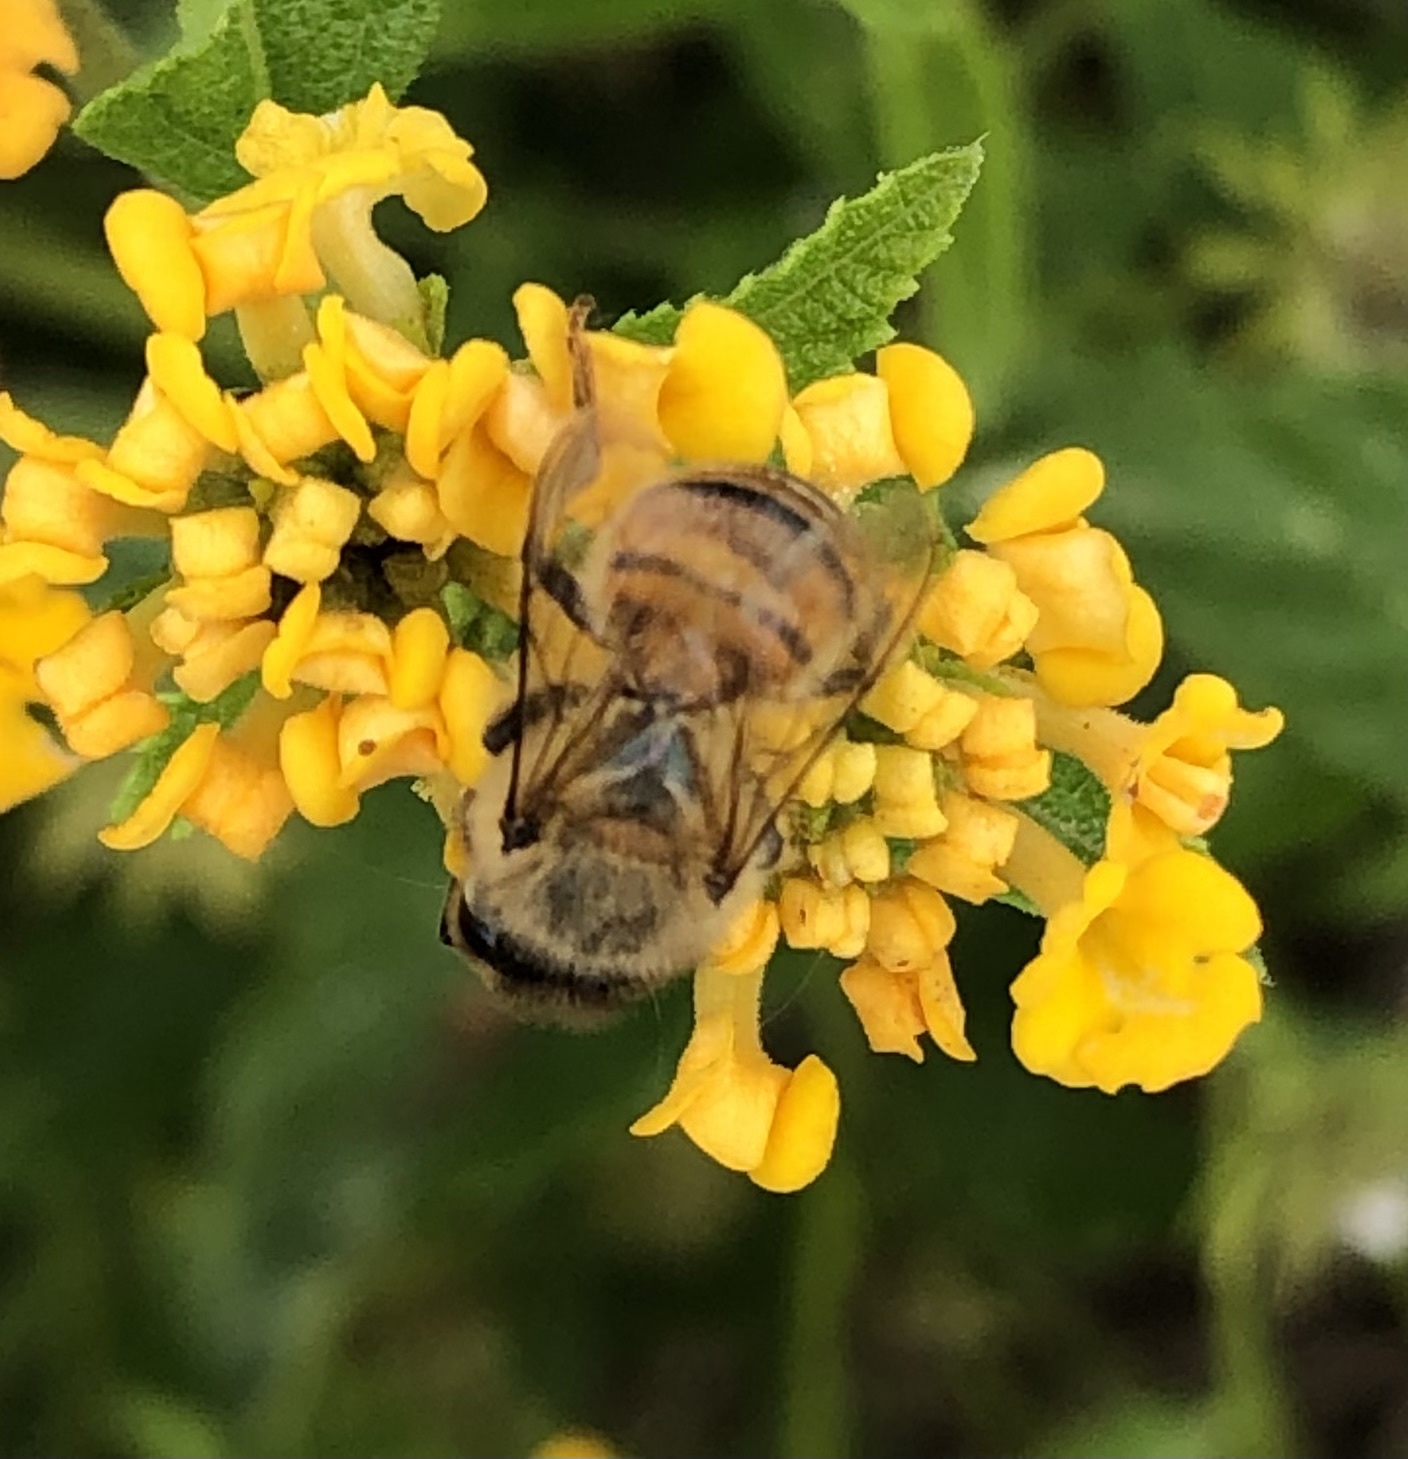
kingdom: Animalia
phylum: Arthropoda
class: Insecta
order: Hymenoptera
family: Apidae
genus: Apis
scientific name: Apis mellifera
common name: Honey bee
